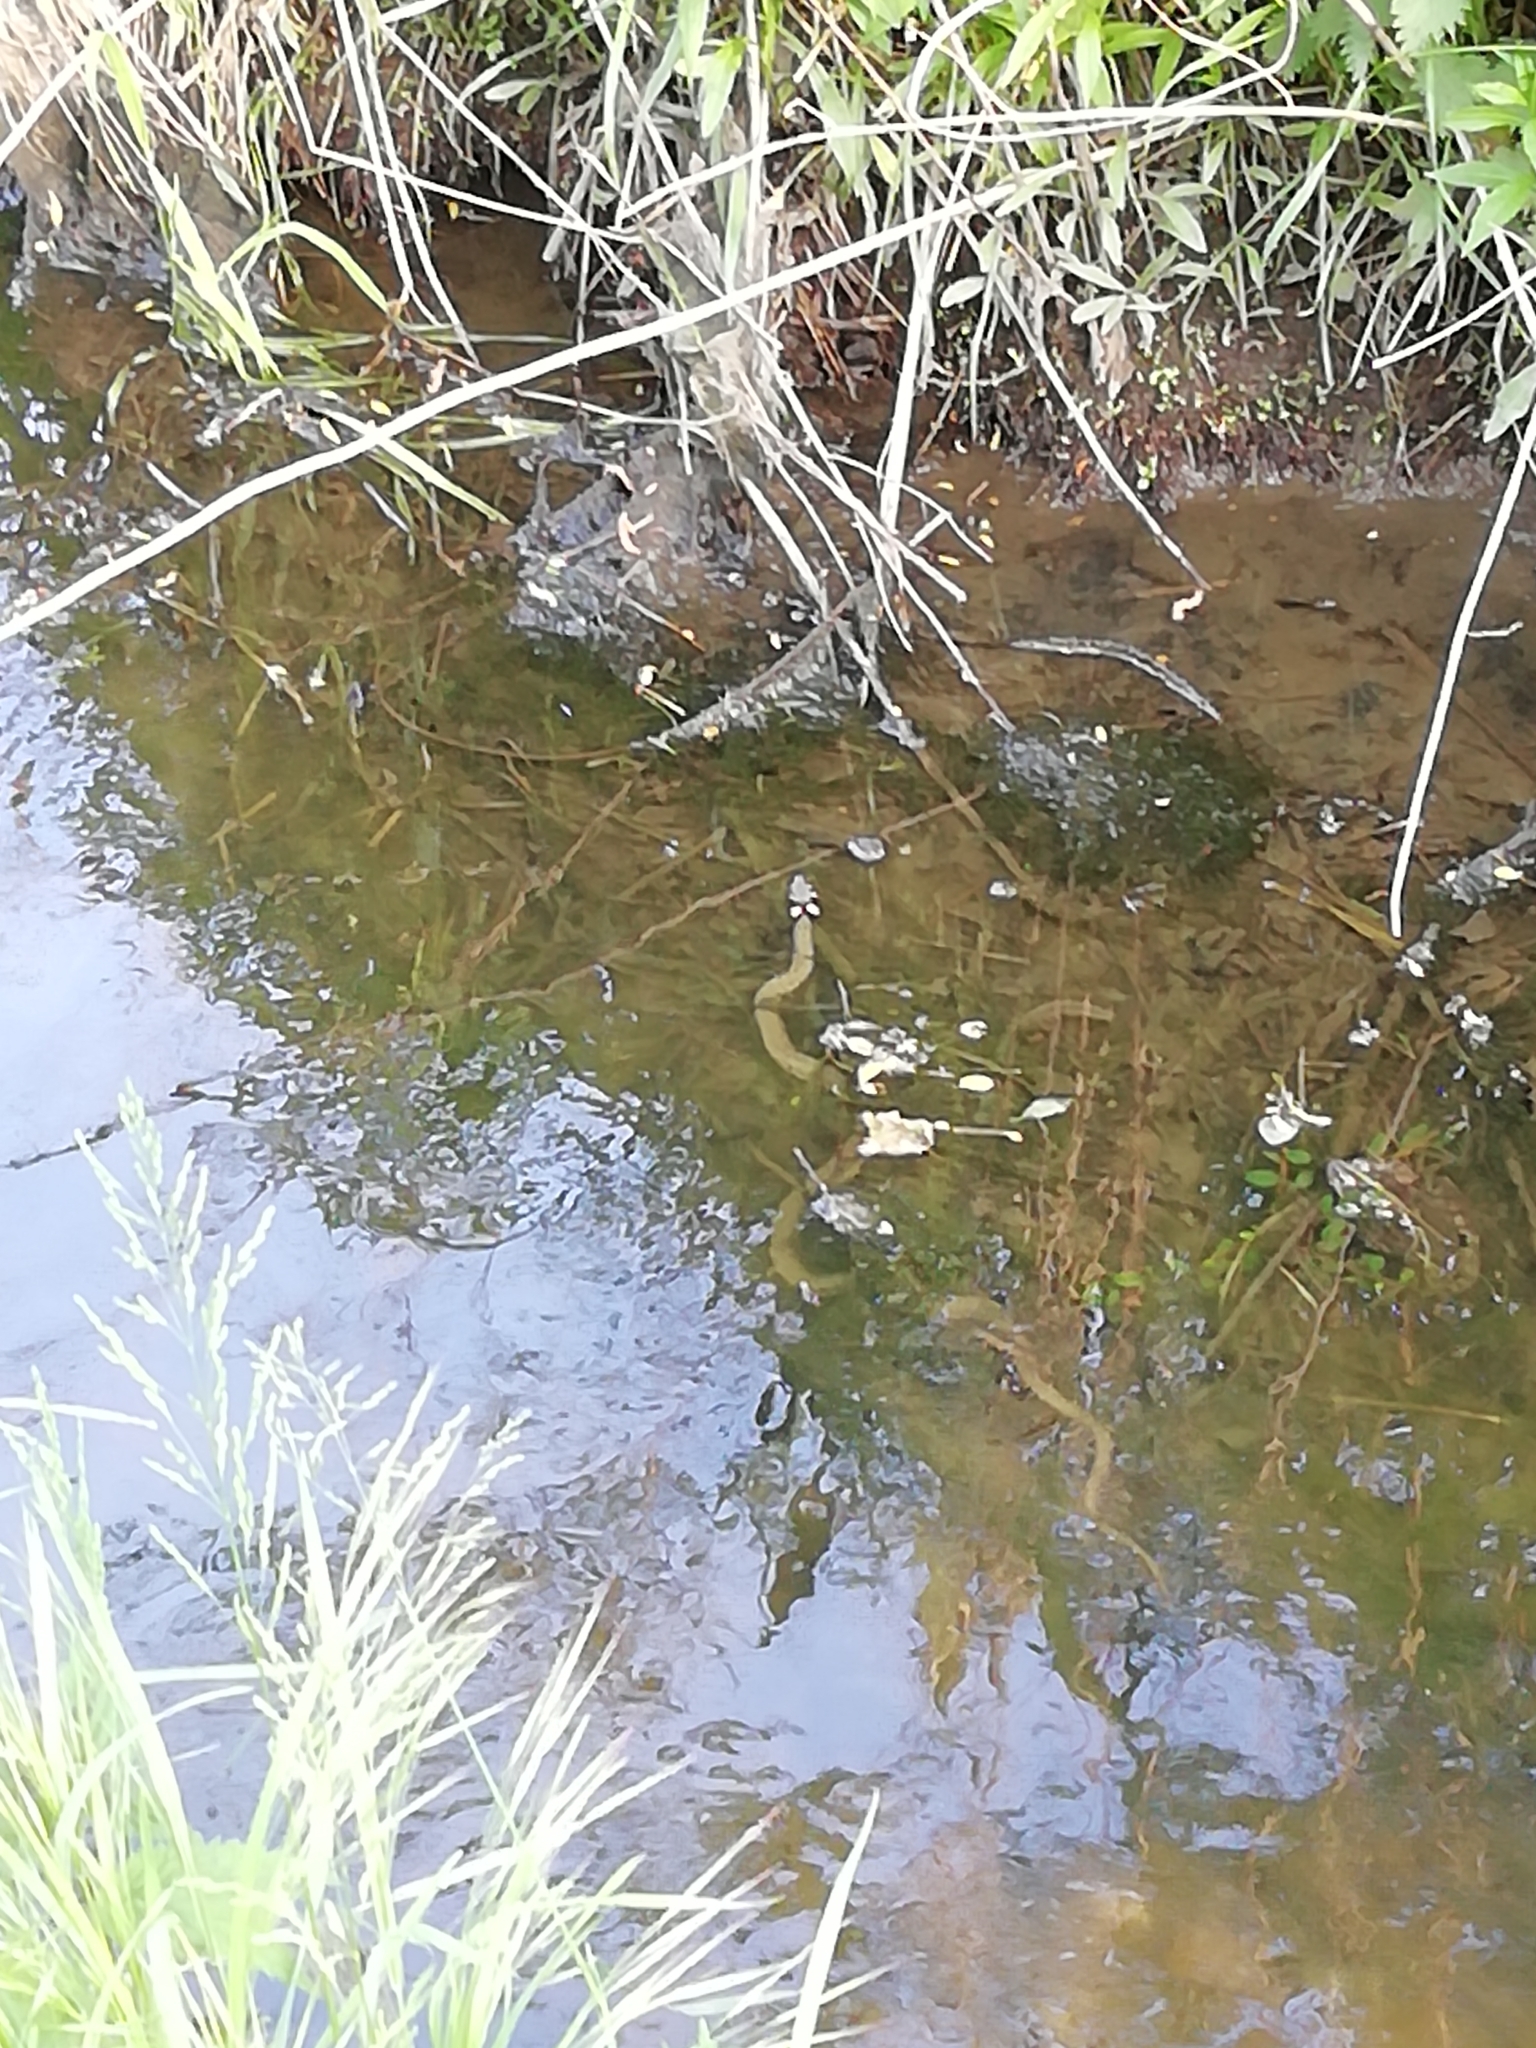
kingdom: Animalia
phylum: Chordata
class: Squamata
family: Colubridae
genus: Natrix
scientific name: Natrix natrix
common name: Grass snake
